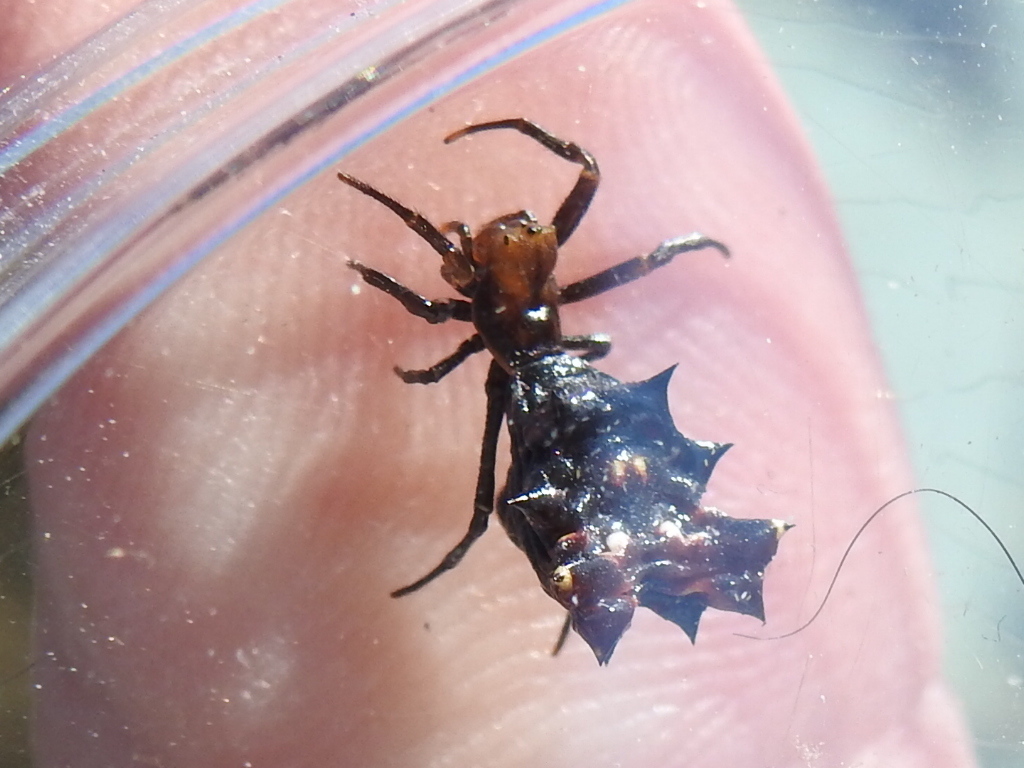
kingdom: Animalia
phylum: Arthropoda
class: Arachnida
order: Araneae
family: Araneidae
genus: Micrathena
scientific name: Micrathena gracilis
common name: Orb weavers
